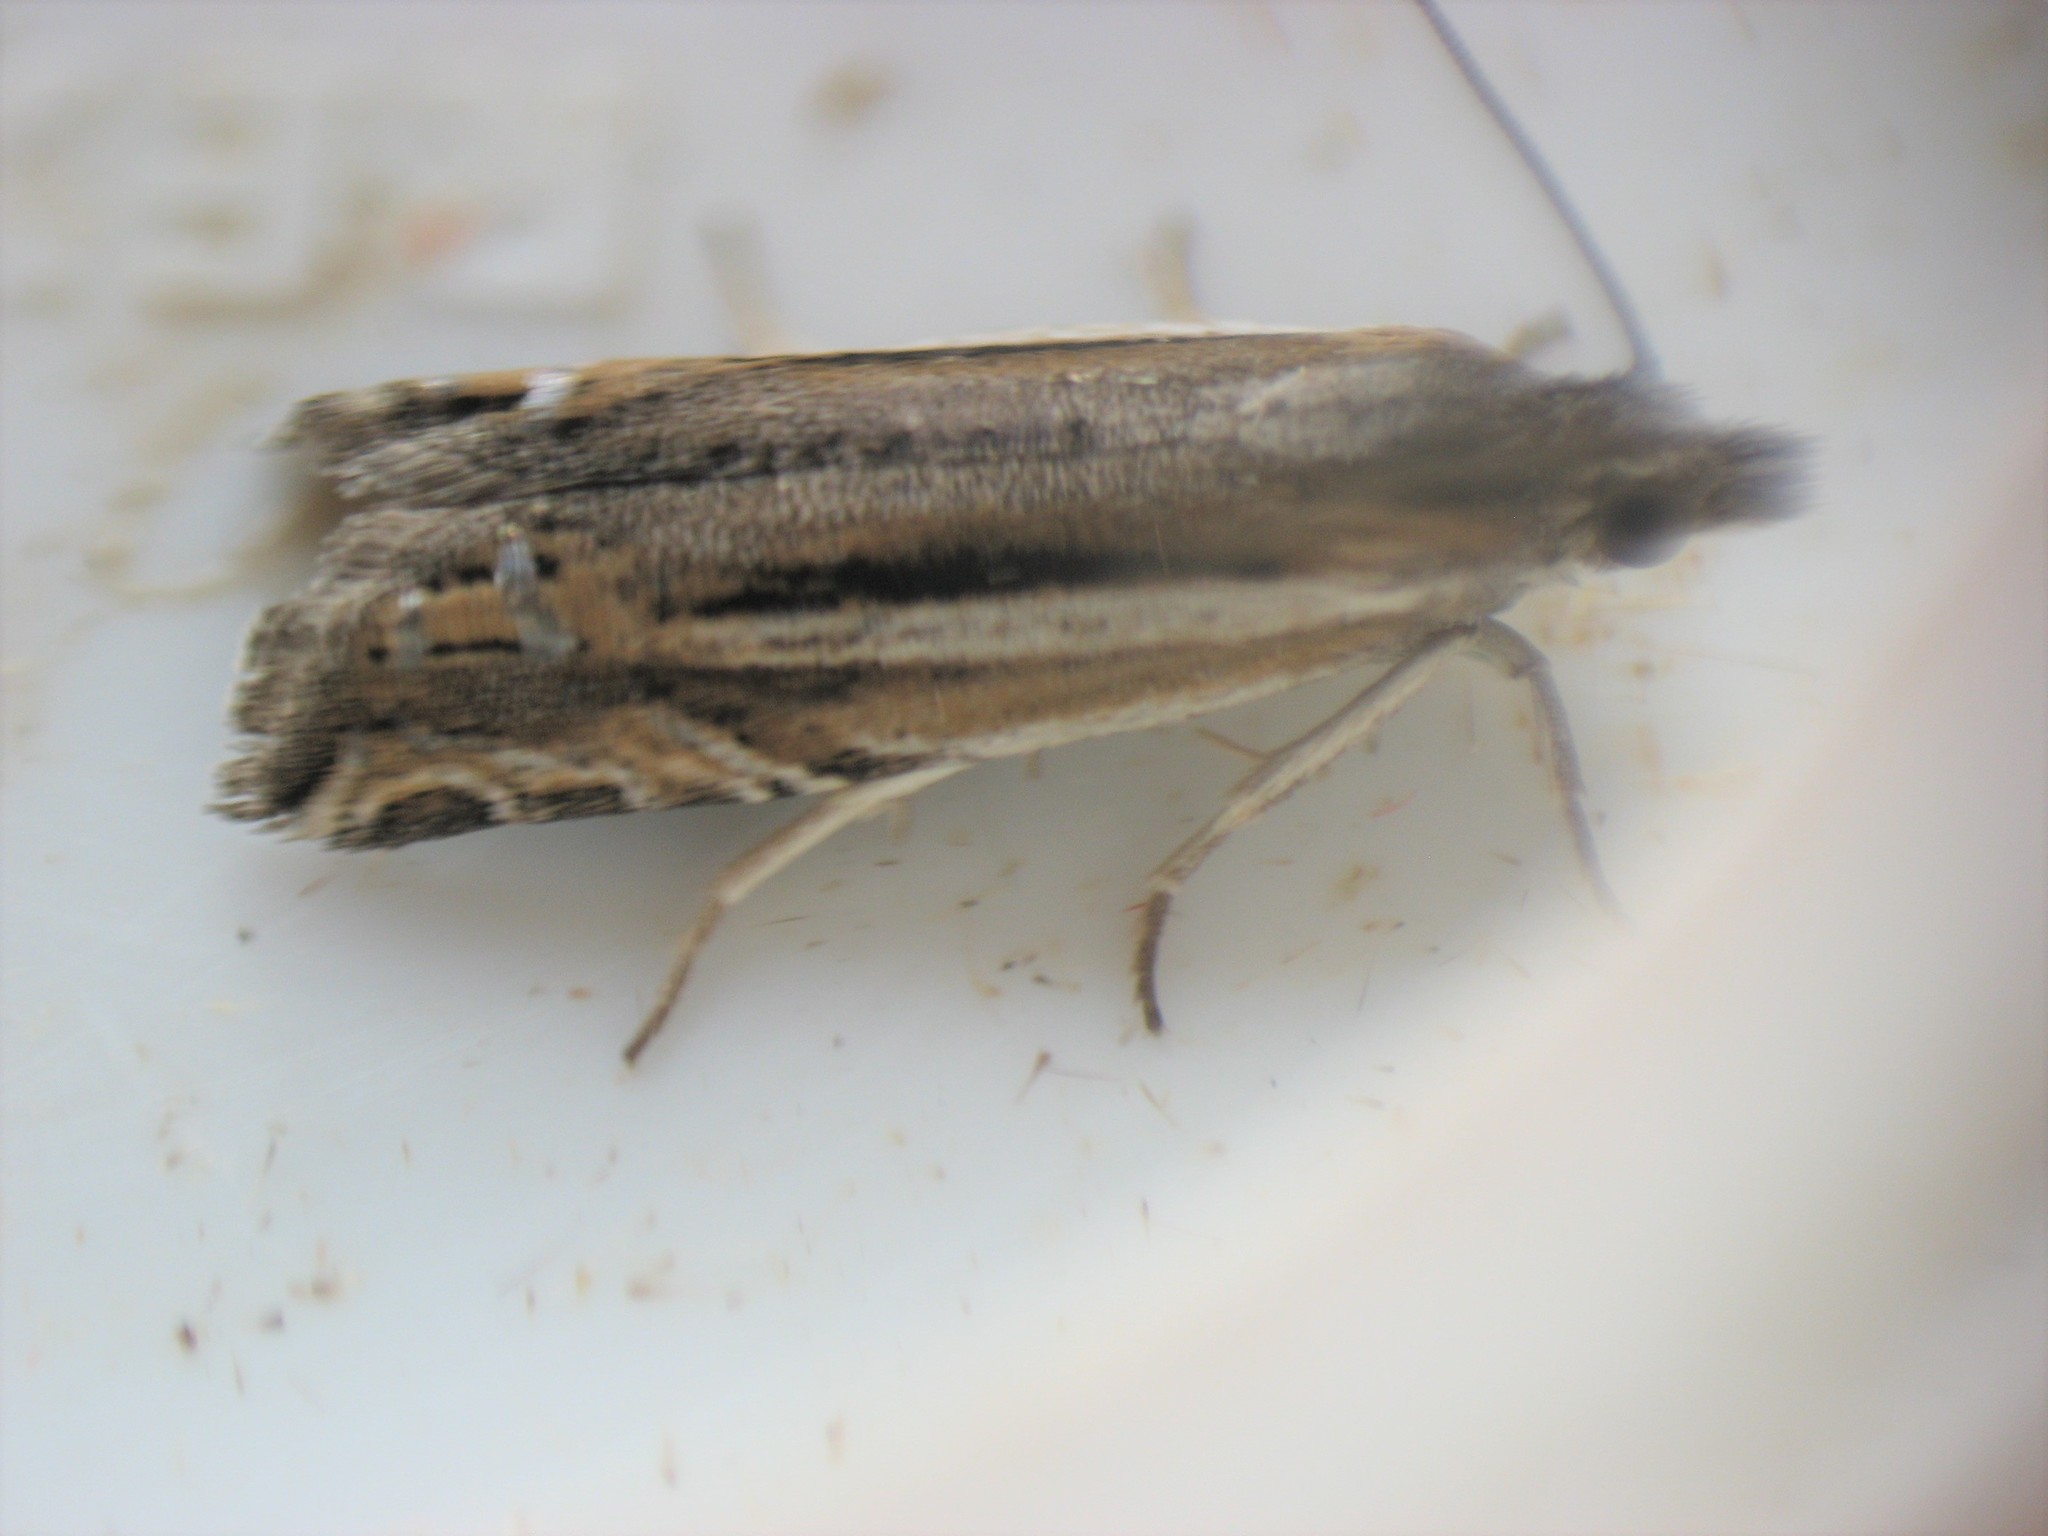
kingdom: Animalia
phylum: Arthropoda
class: Insecta
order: Lepidoptera
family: Tortricidae
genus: Eucosma
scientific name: Eucosma dorsiatomana
